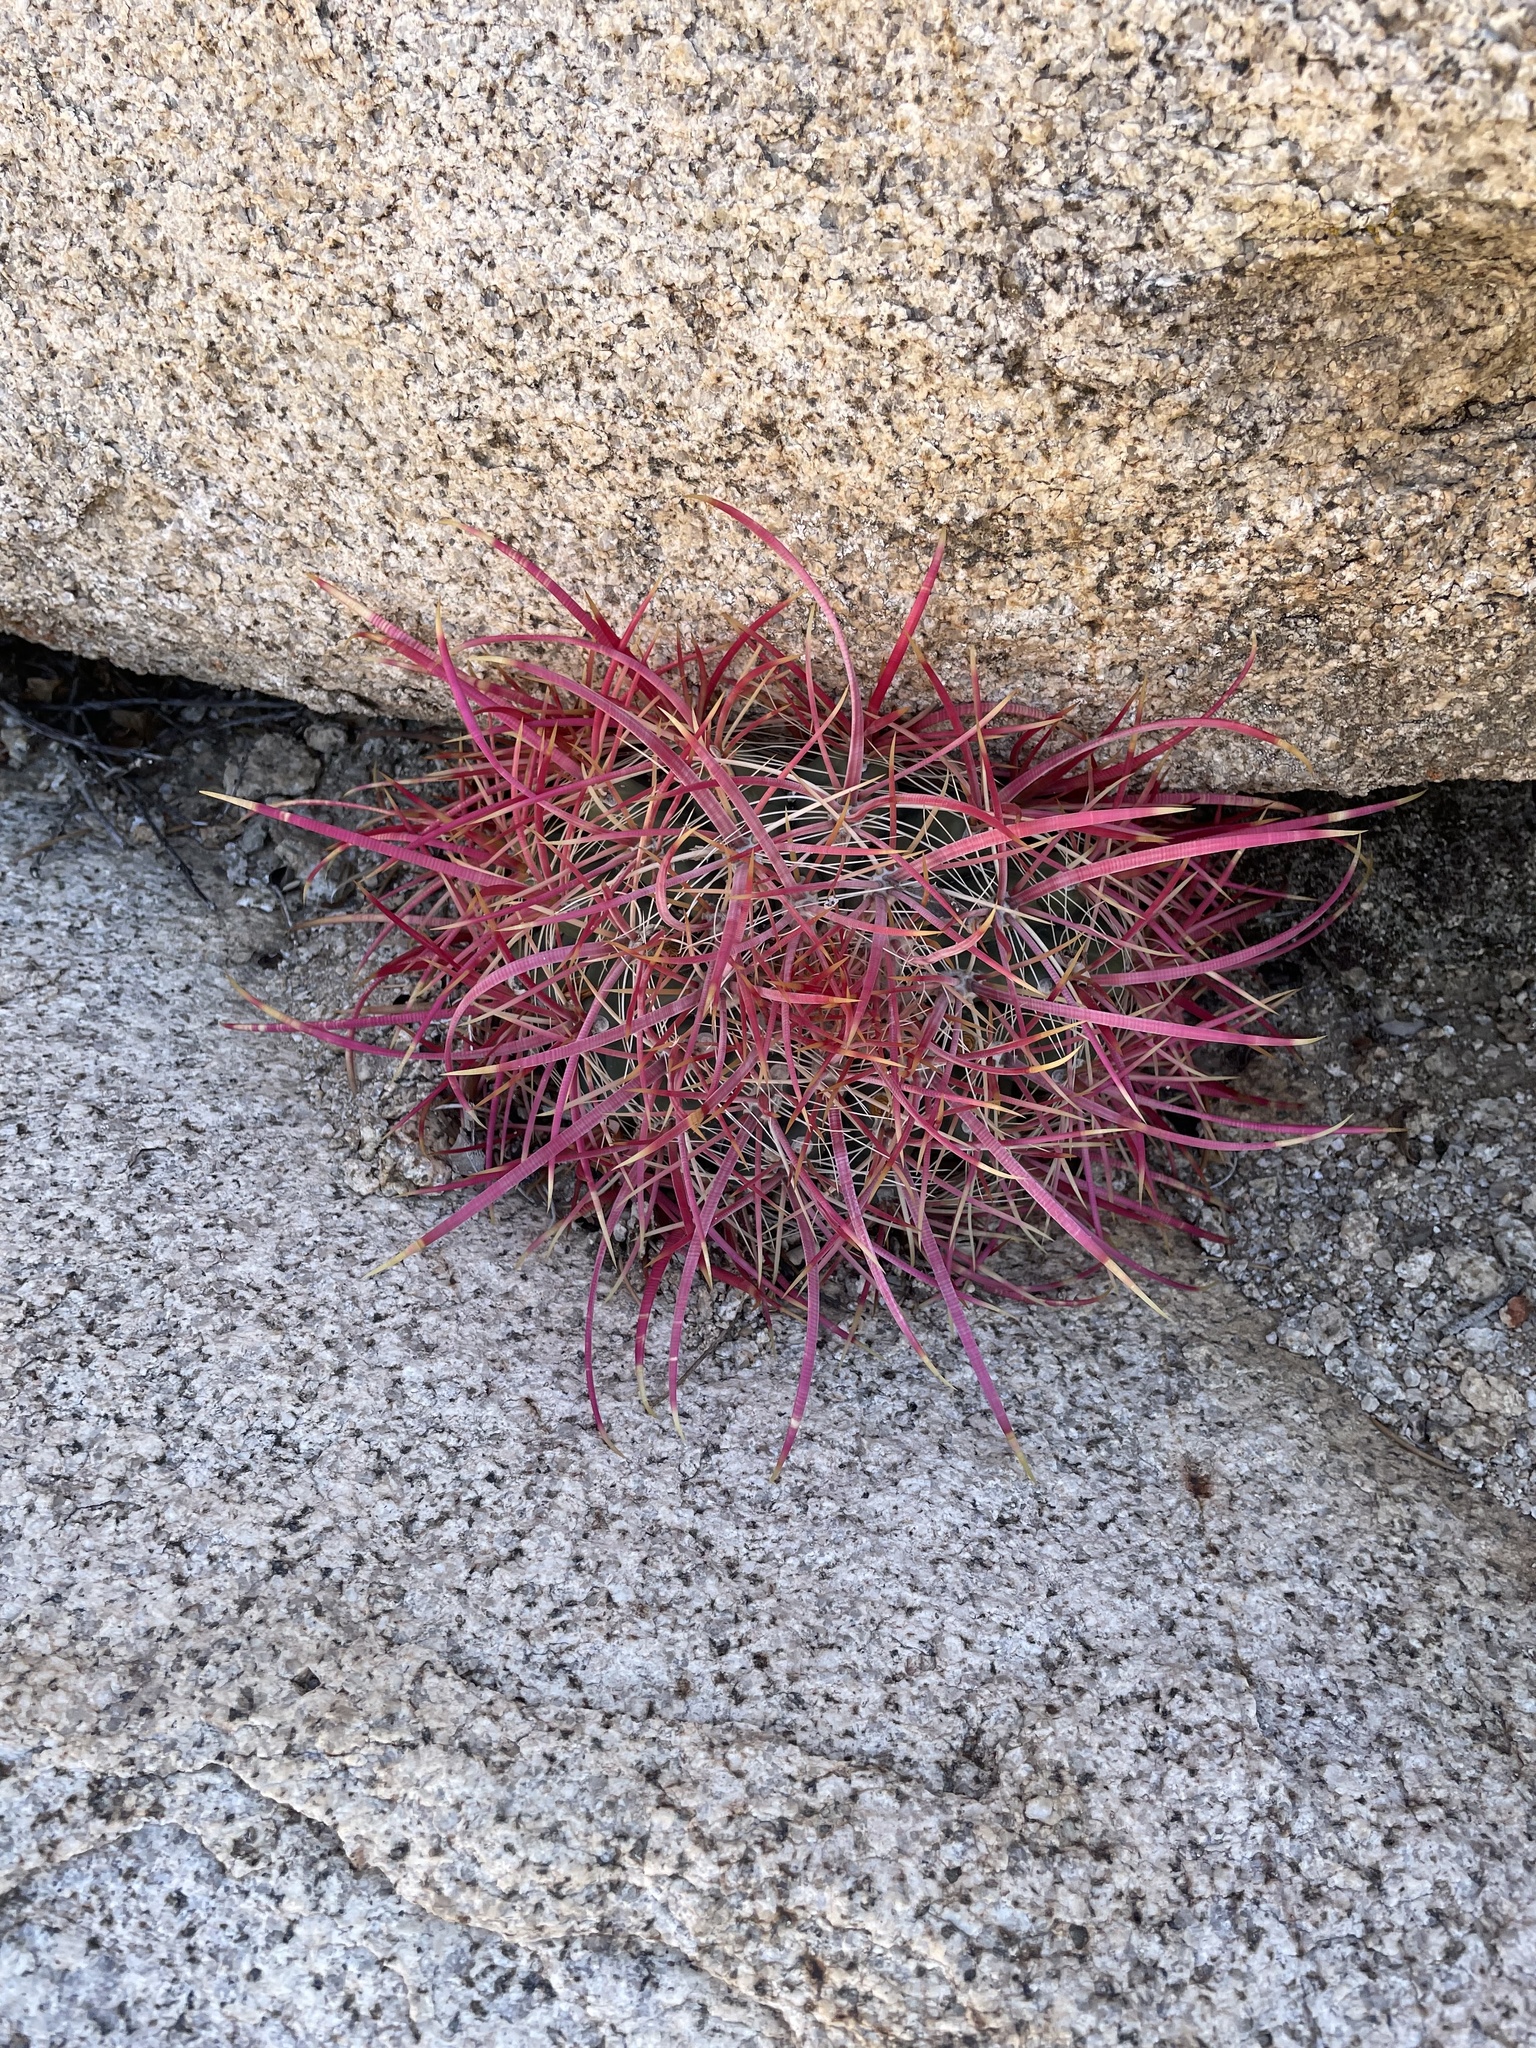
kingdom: Plantae
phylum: Tracheophyta
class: Magnoliopsida
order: Caryophyllales
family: Cactaceae
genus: Ferocactus
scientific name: Ferocactus cylindraceus
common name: California barrel cactus
